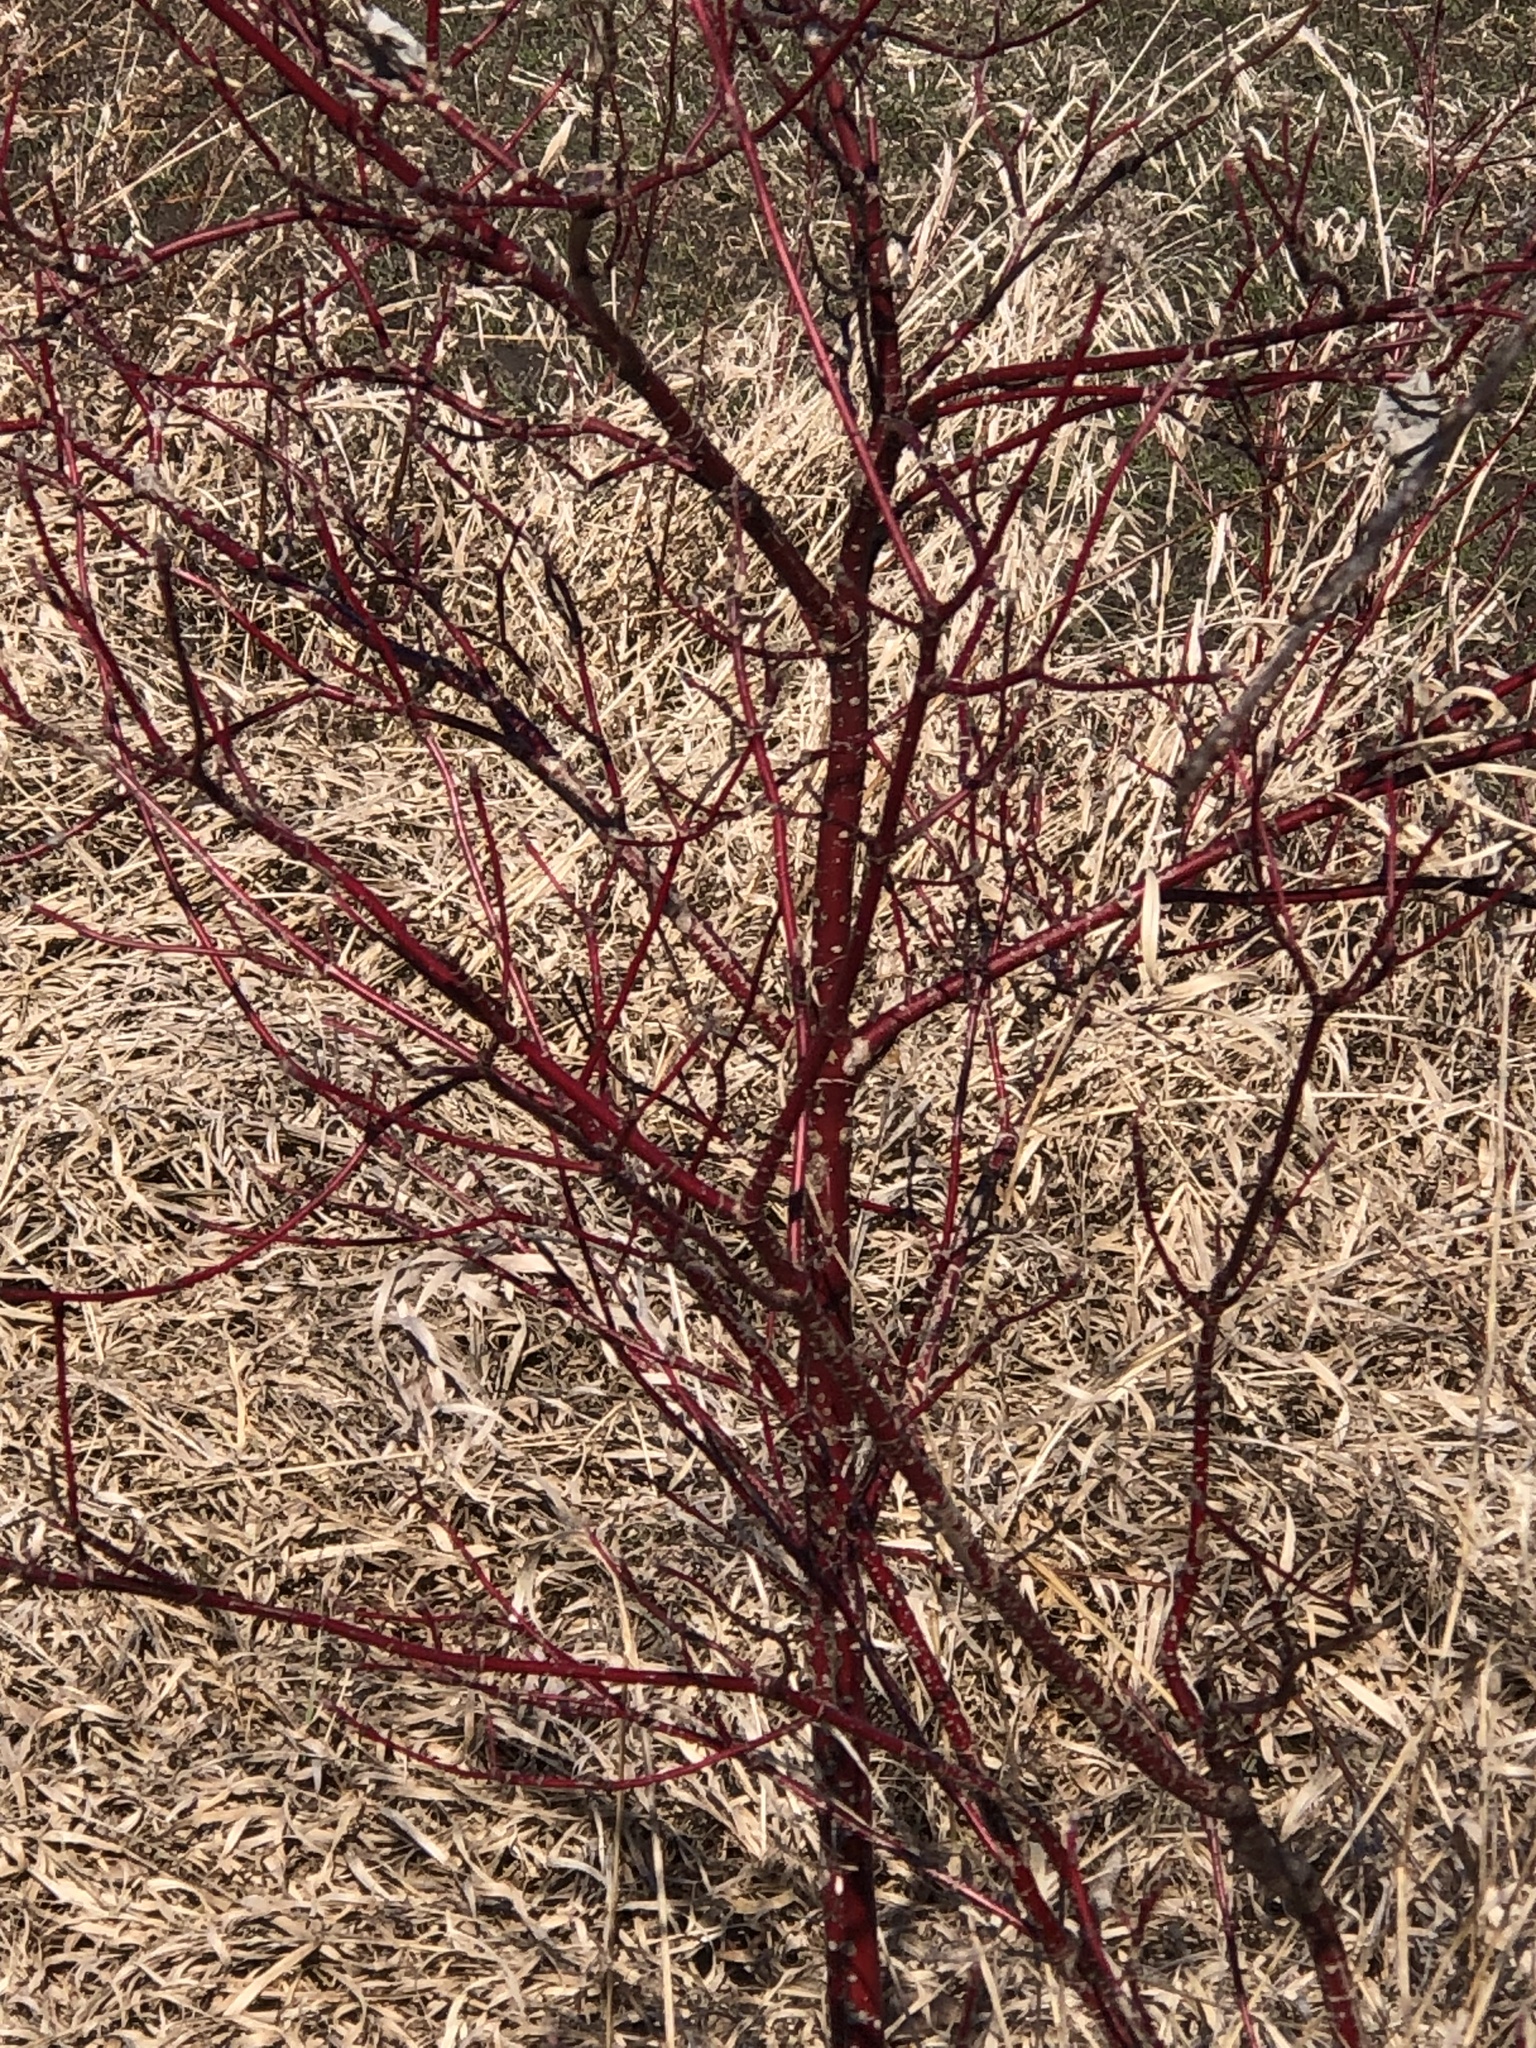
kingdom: Plantae
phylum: Tracheophyta
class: Magnoliopsida
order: Cornales
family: Cornaceae
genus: Cornus
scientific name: Cornus sericea
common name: Red-osier dogwood
